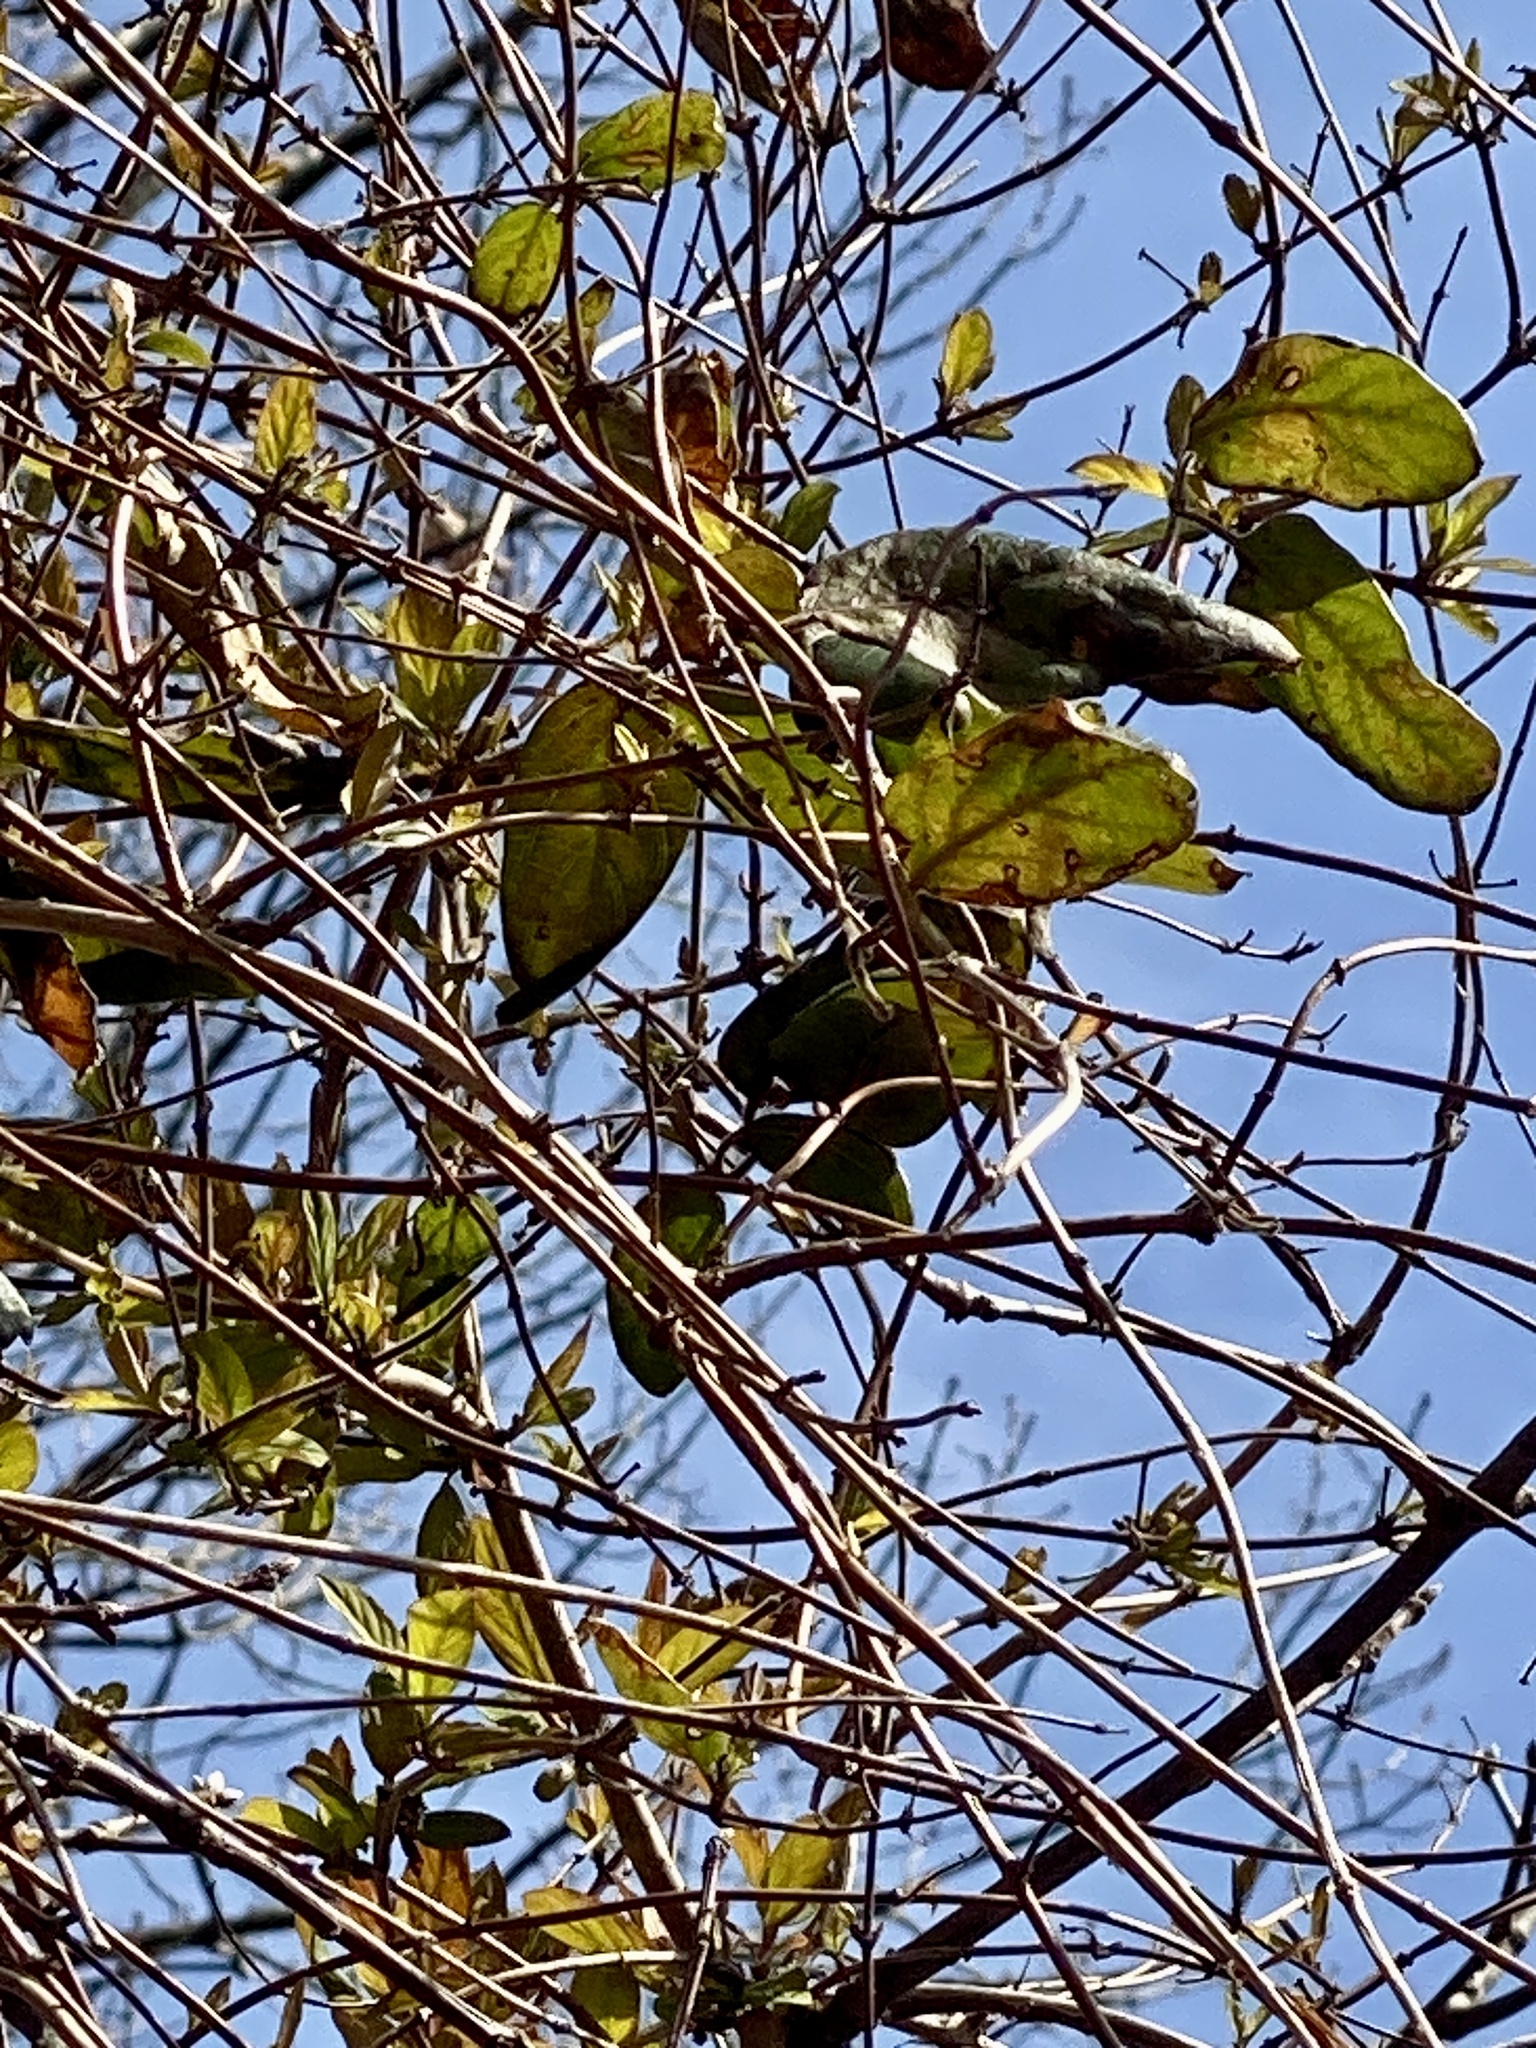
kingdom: Plantae
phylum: Tracheophyta
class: Magnoliopsida
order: Dipsacales
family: Caprifoliaceae
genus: Lonicera
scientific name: Lonicera japonica
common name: Japanese honeysuckle
